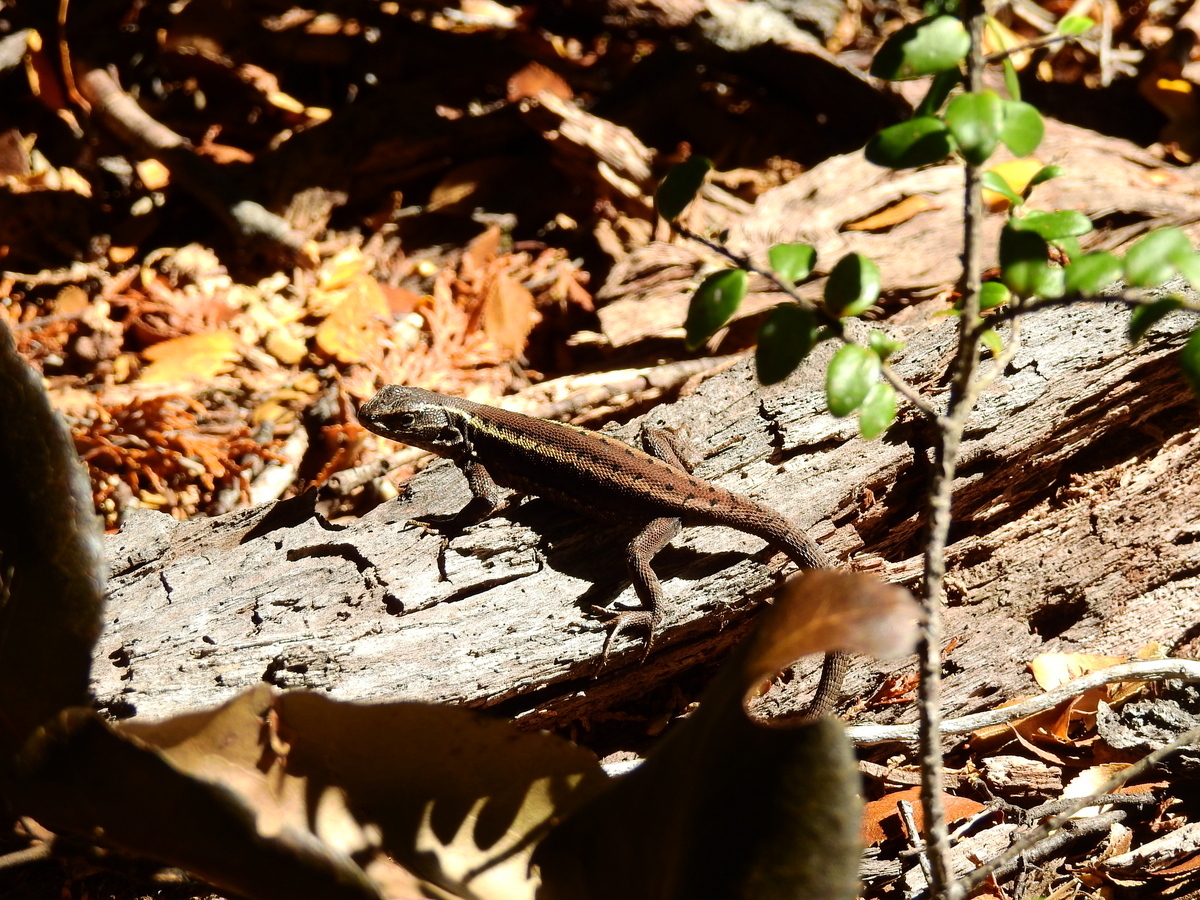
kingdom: Animalia
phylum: Chordata
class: Squamata
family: Liolaemidae
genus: Liolaemus
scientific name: Liolaemus pictus
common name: Painted tree iguana
